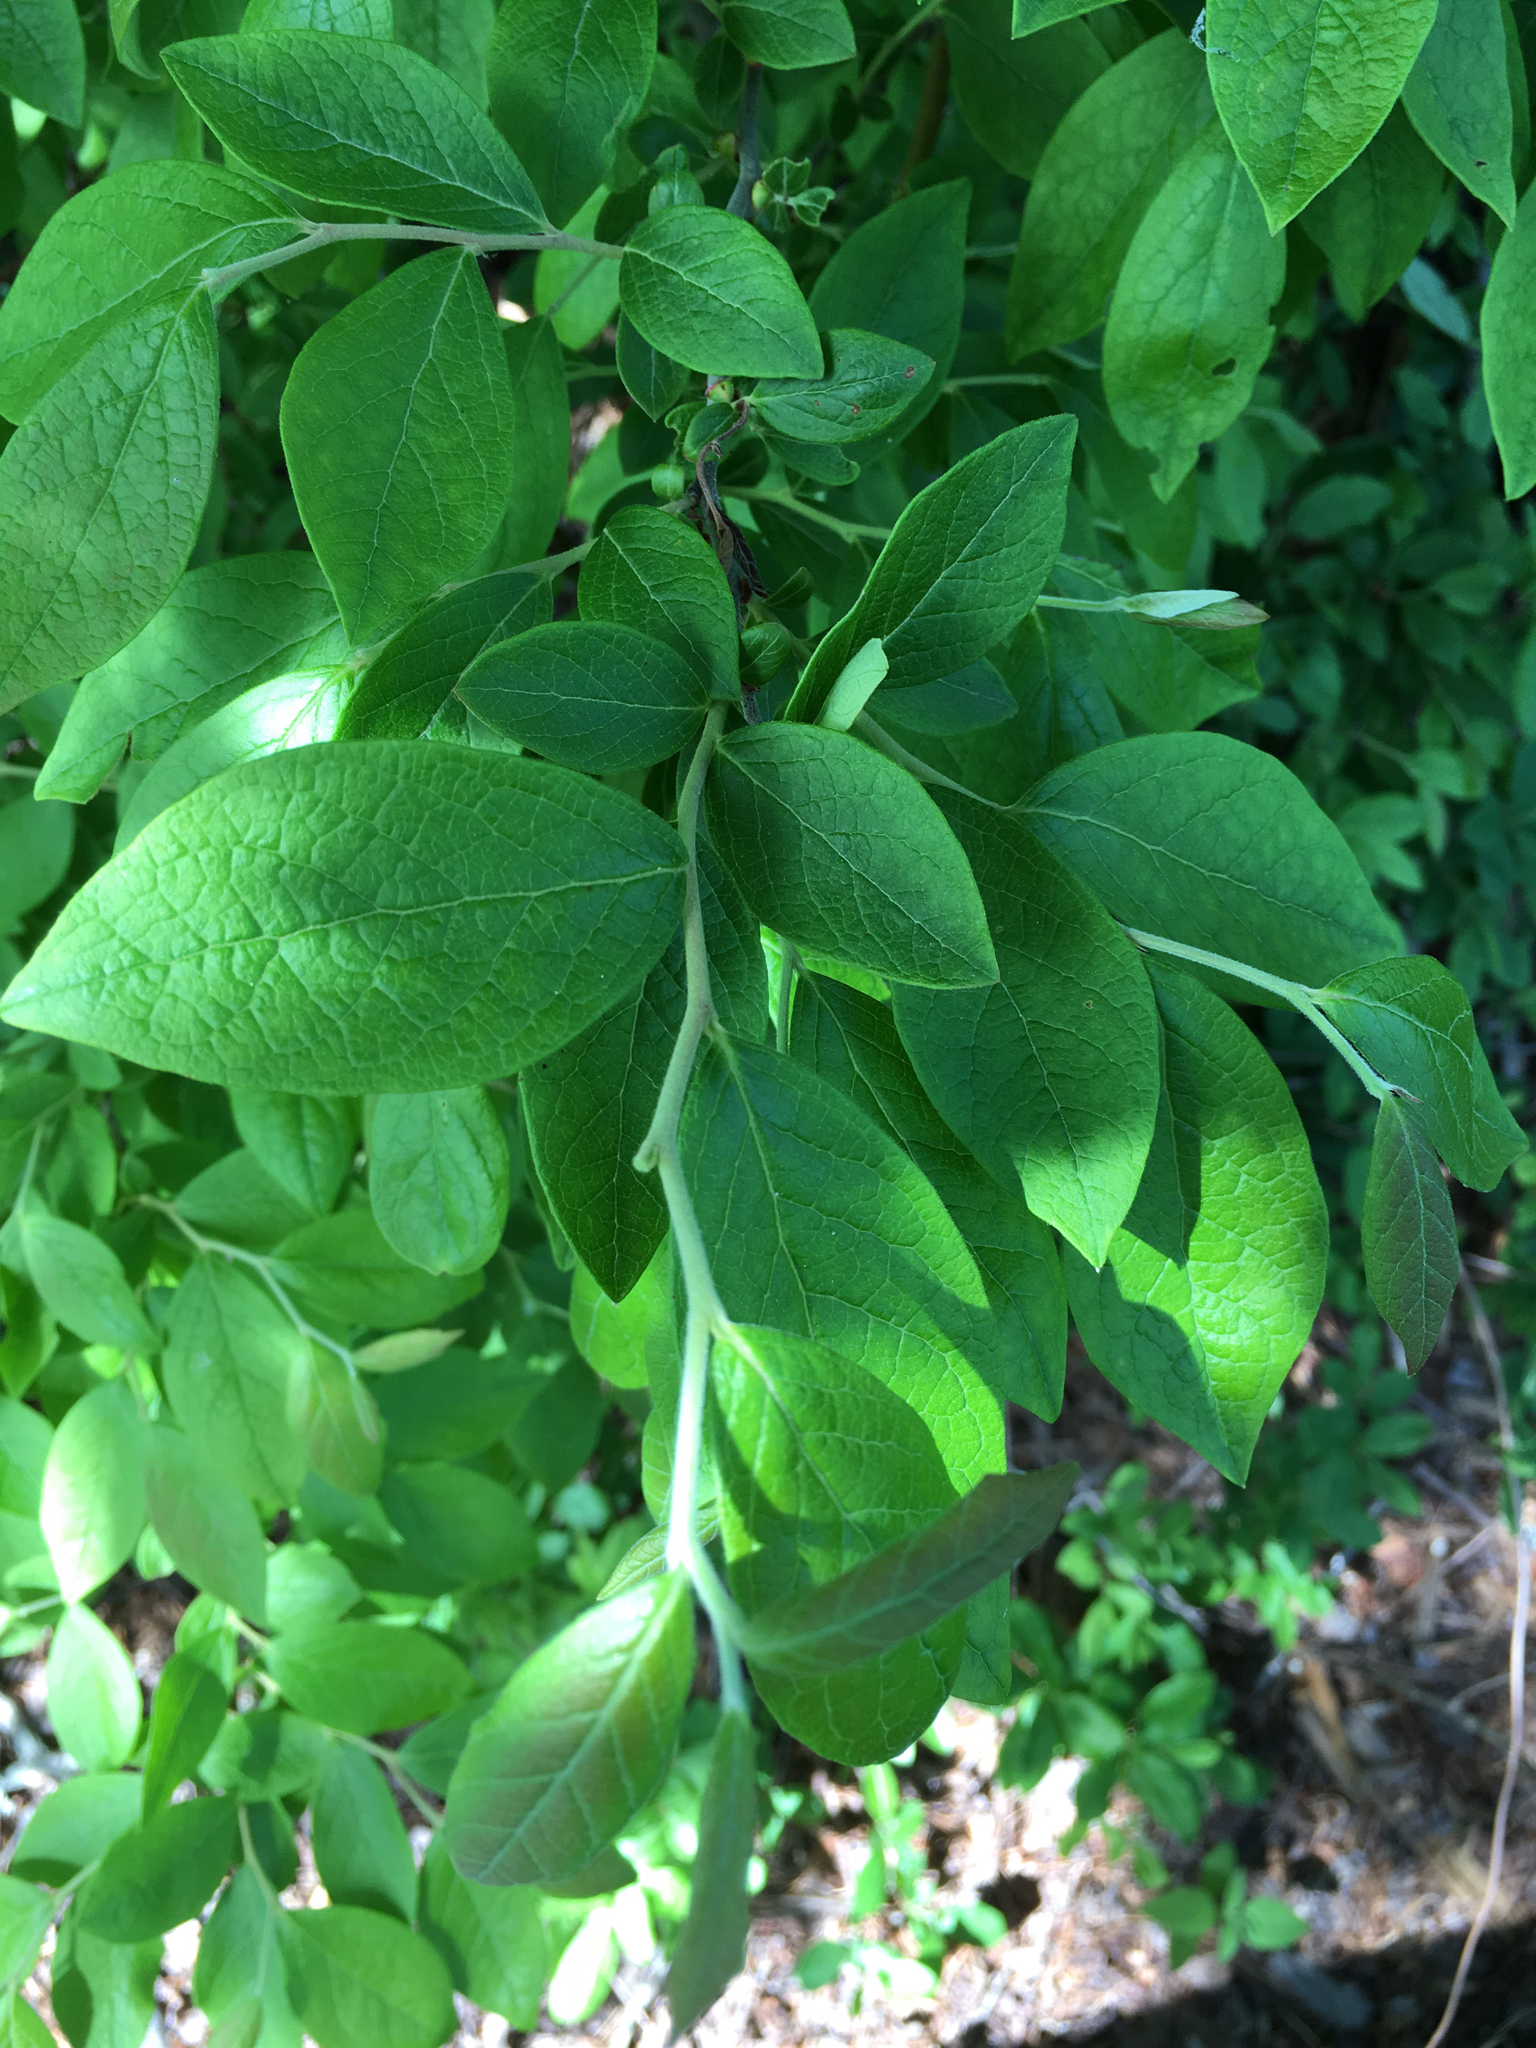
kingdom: Plantae
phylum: Tracheophyta
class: Magnoliopsida
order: Ericales
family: Ericaceae
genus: Vaccinium
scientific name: Vaccinium corymbosum
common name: Blueberry
